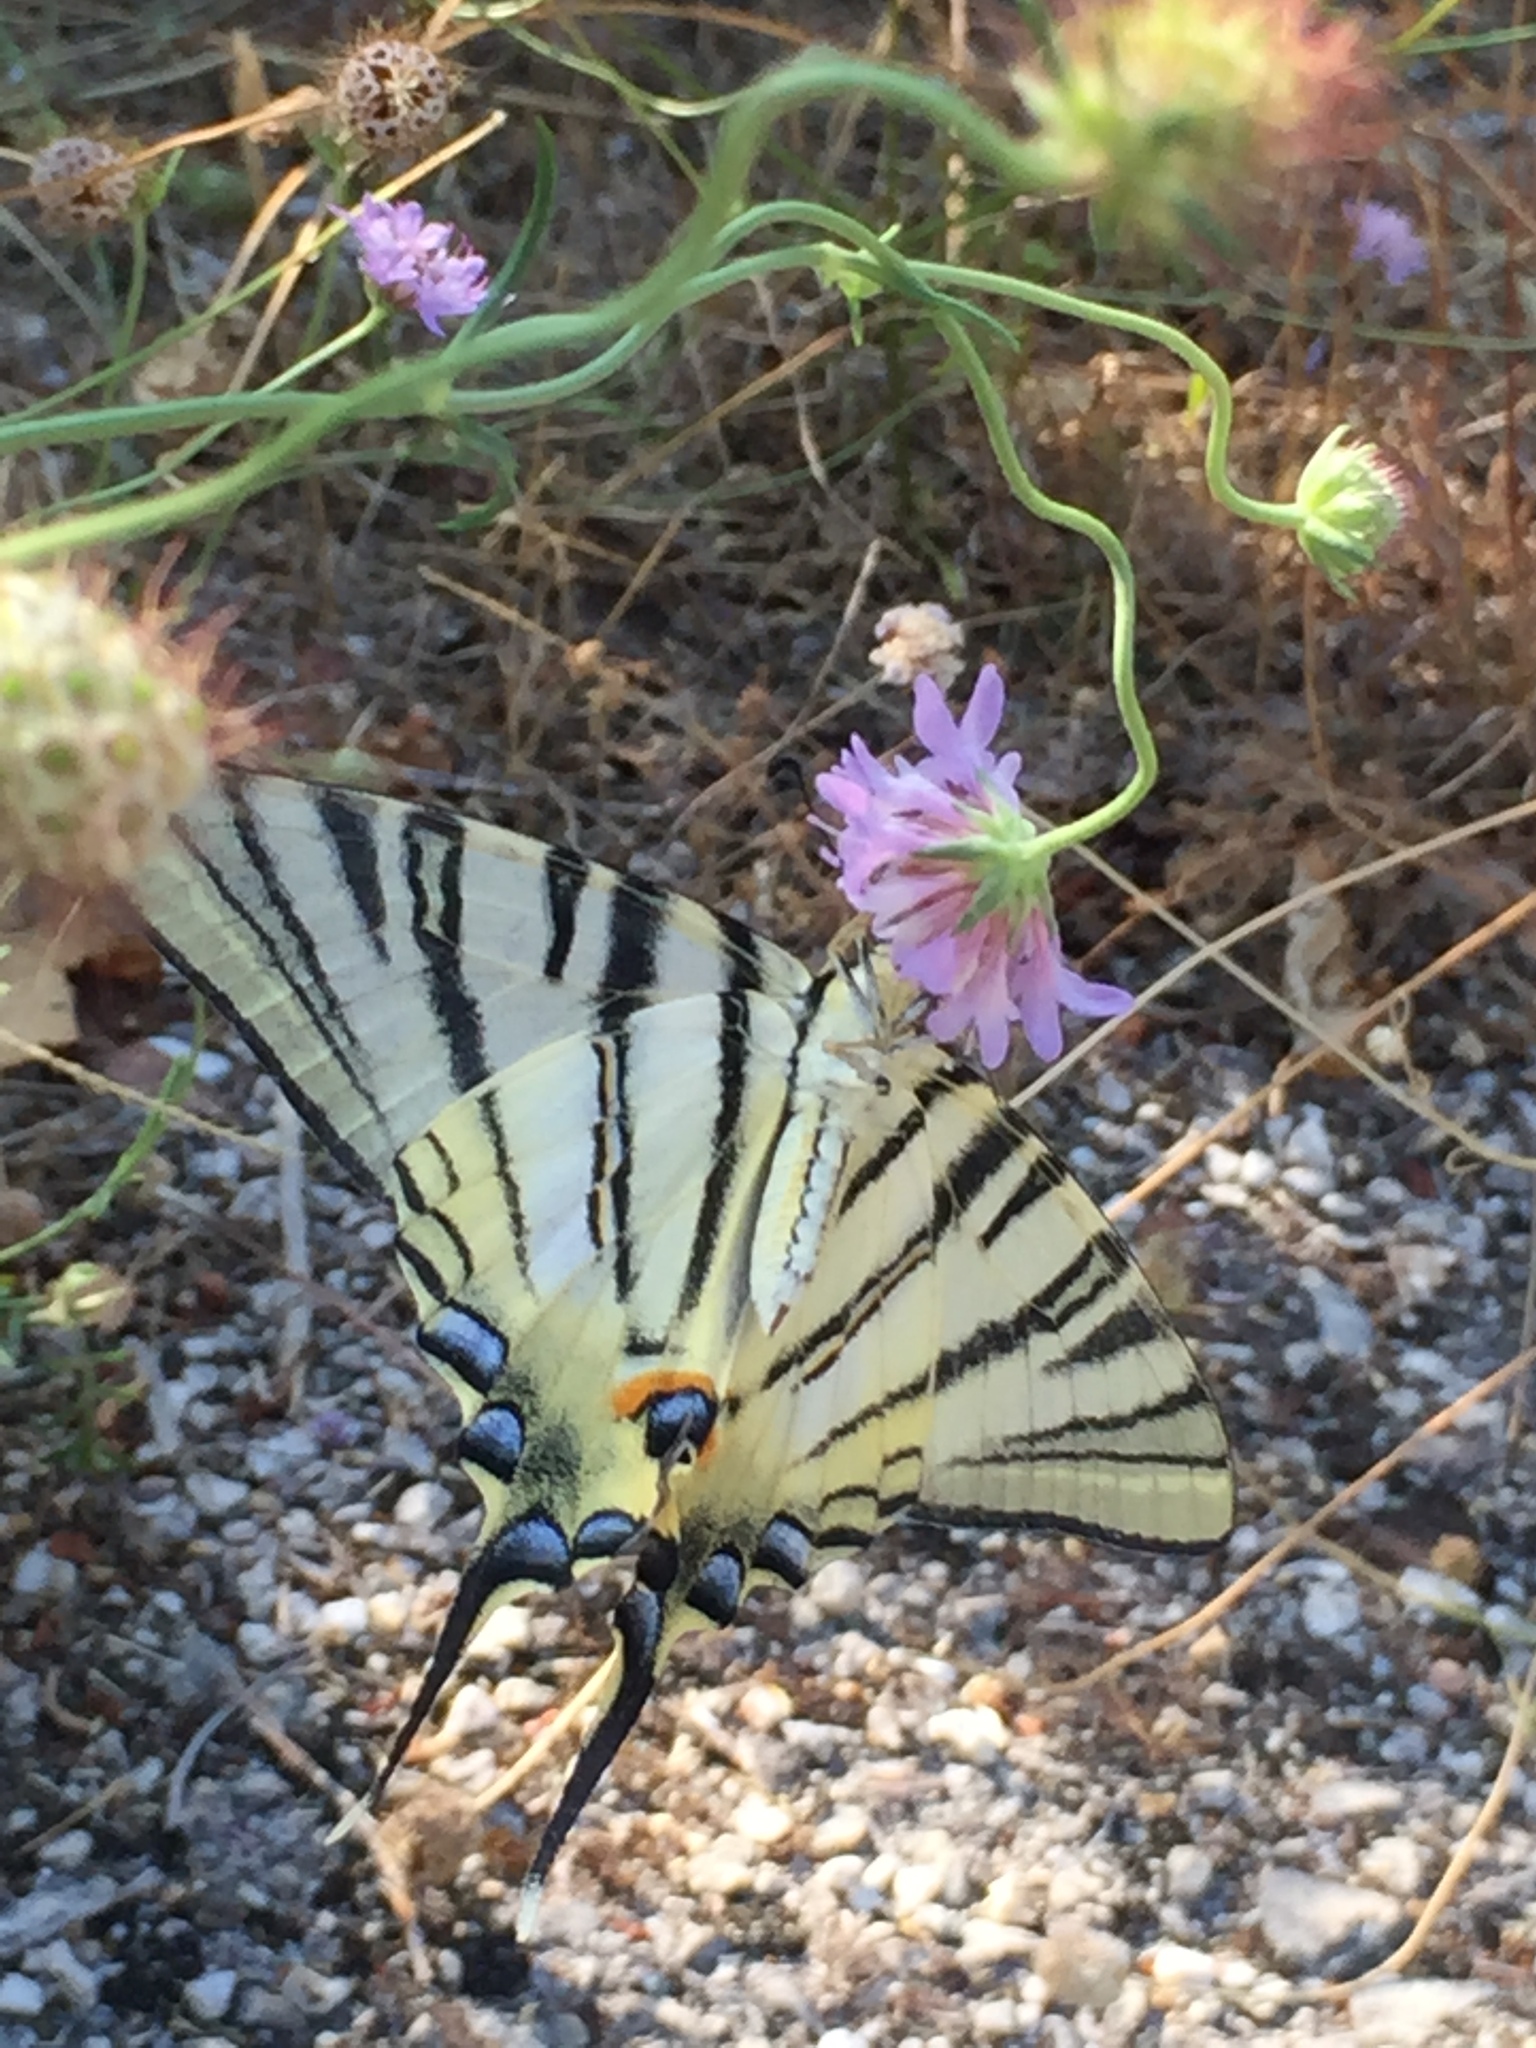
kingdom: Animalia
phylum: Arthropoda
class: Insecta
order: Lepidoptera
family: Papilionidae
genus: Iphiclides
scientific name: Iphiclides podalirius
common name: Scarce swallowtail
